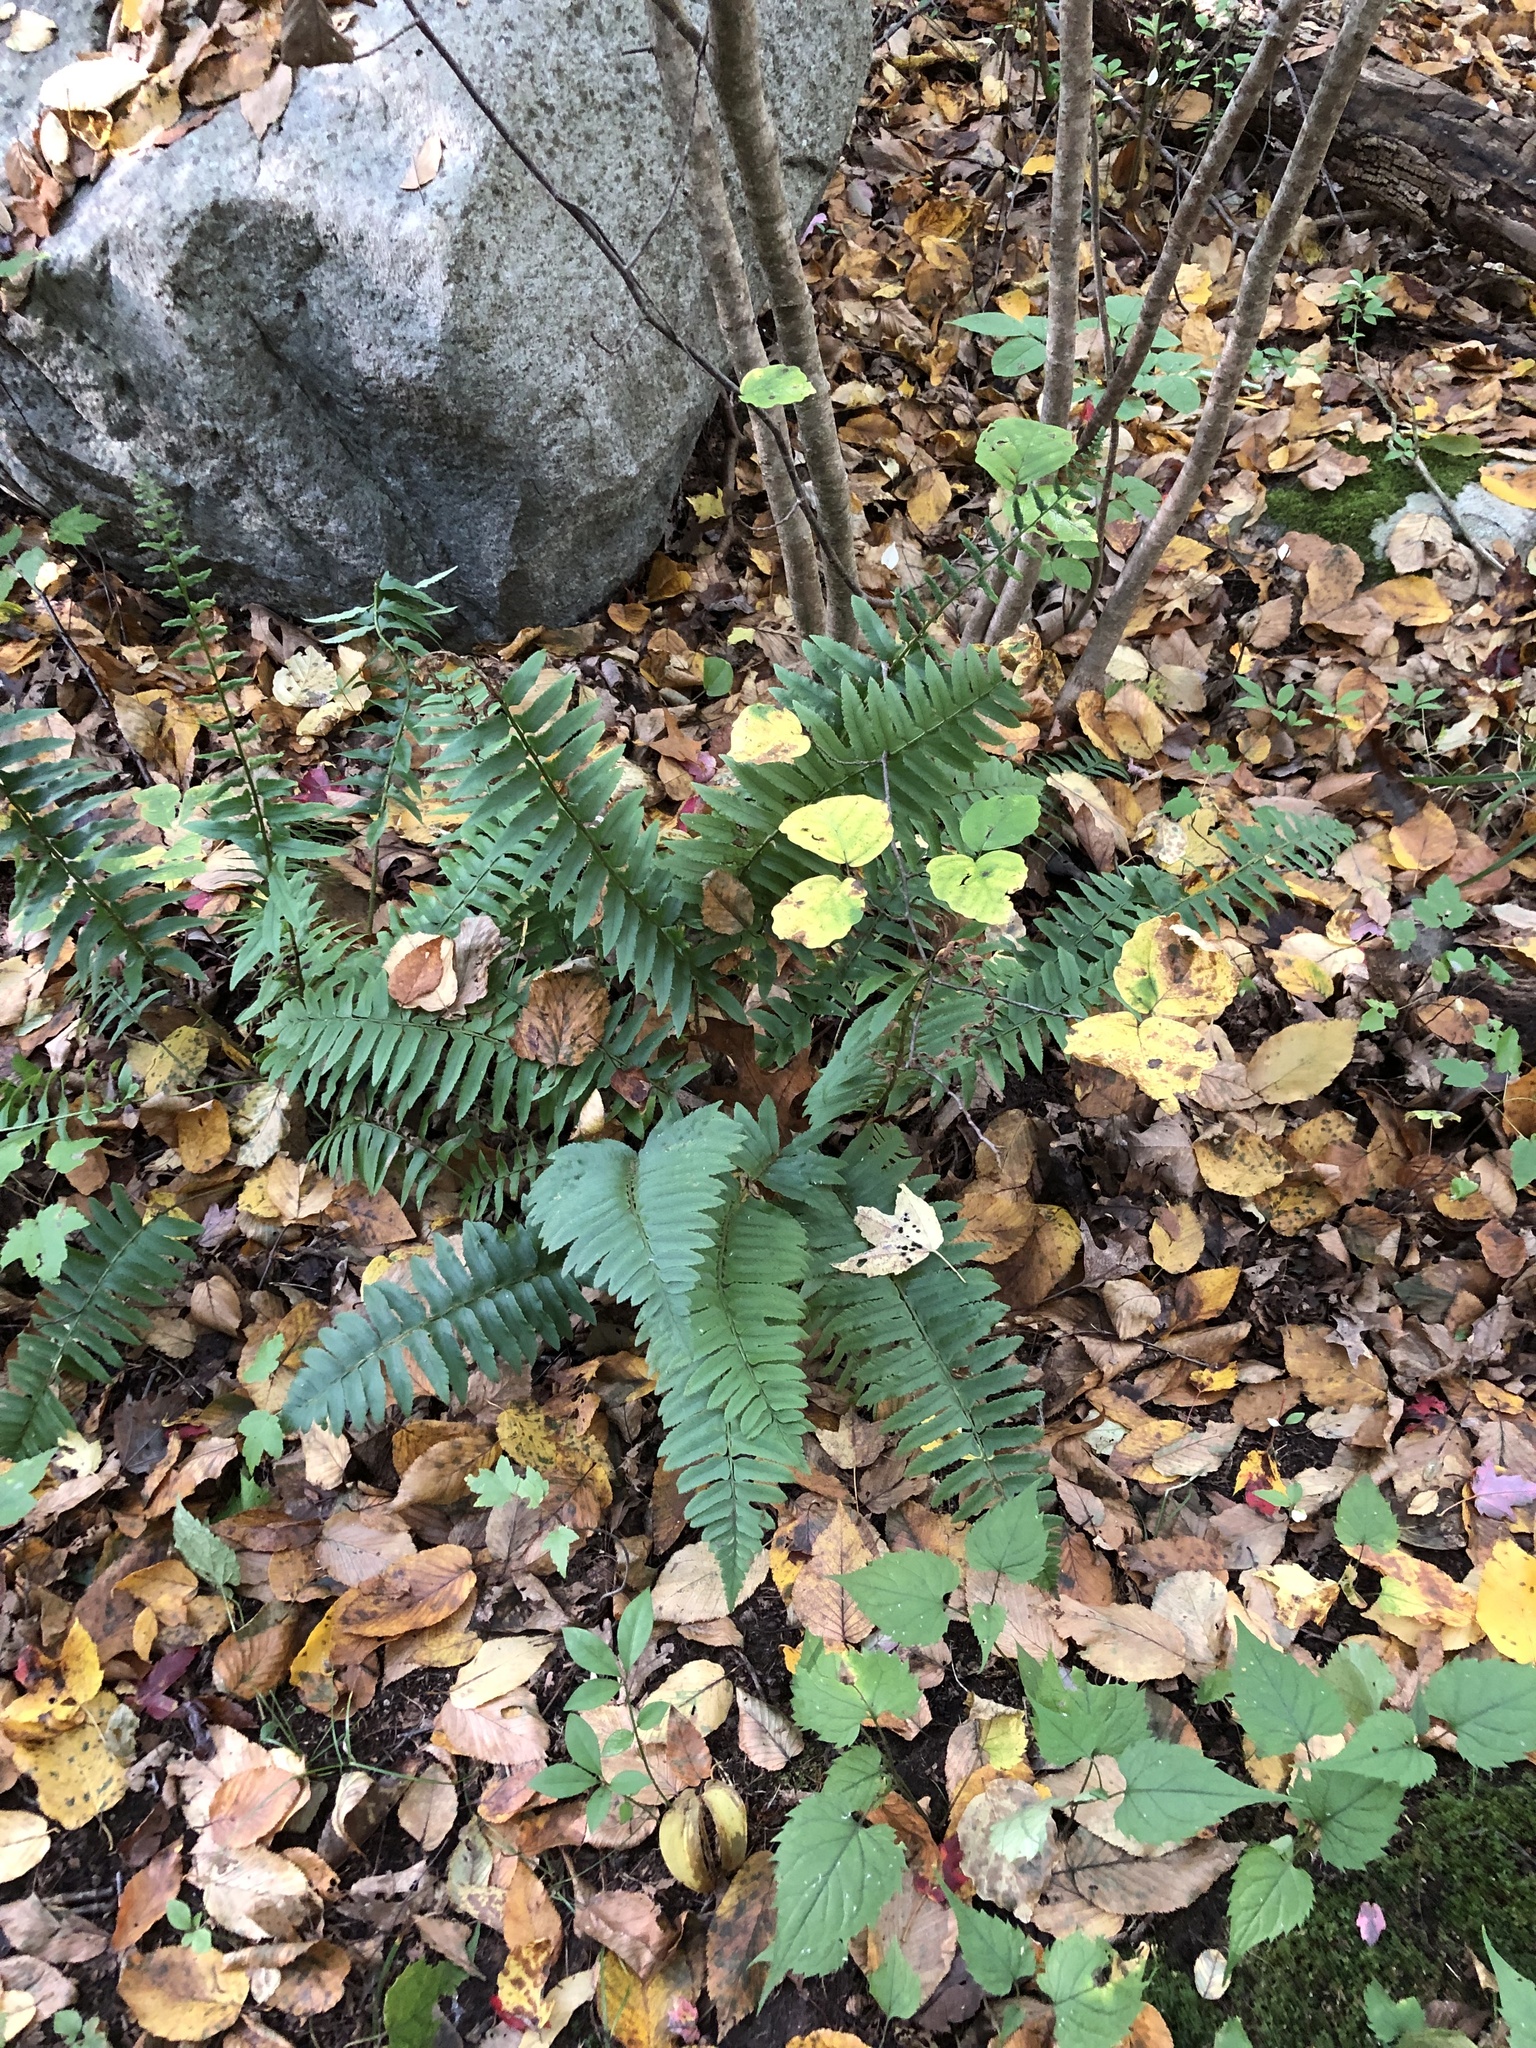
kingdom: Plantae
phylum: Tracheophyta
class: Polypodiopsida
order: Polypodiales
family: Dryopteridaceae
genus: Polystichum
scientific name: Polystichum acrostichoides
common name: Christmas fern
